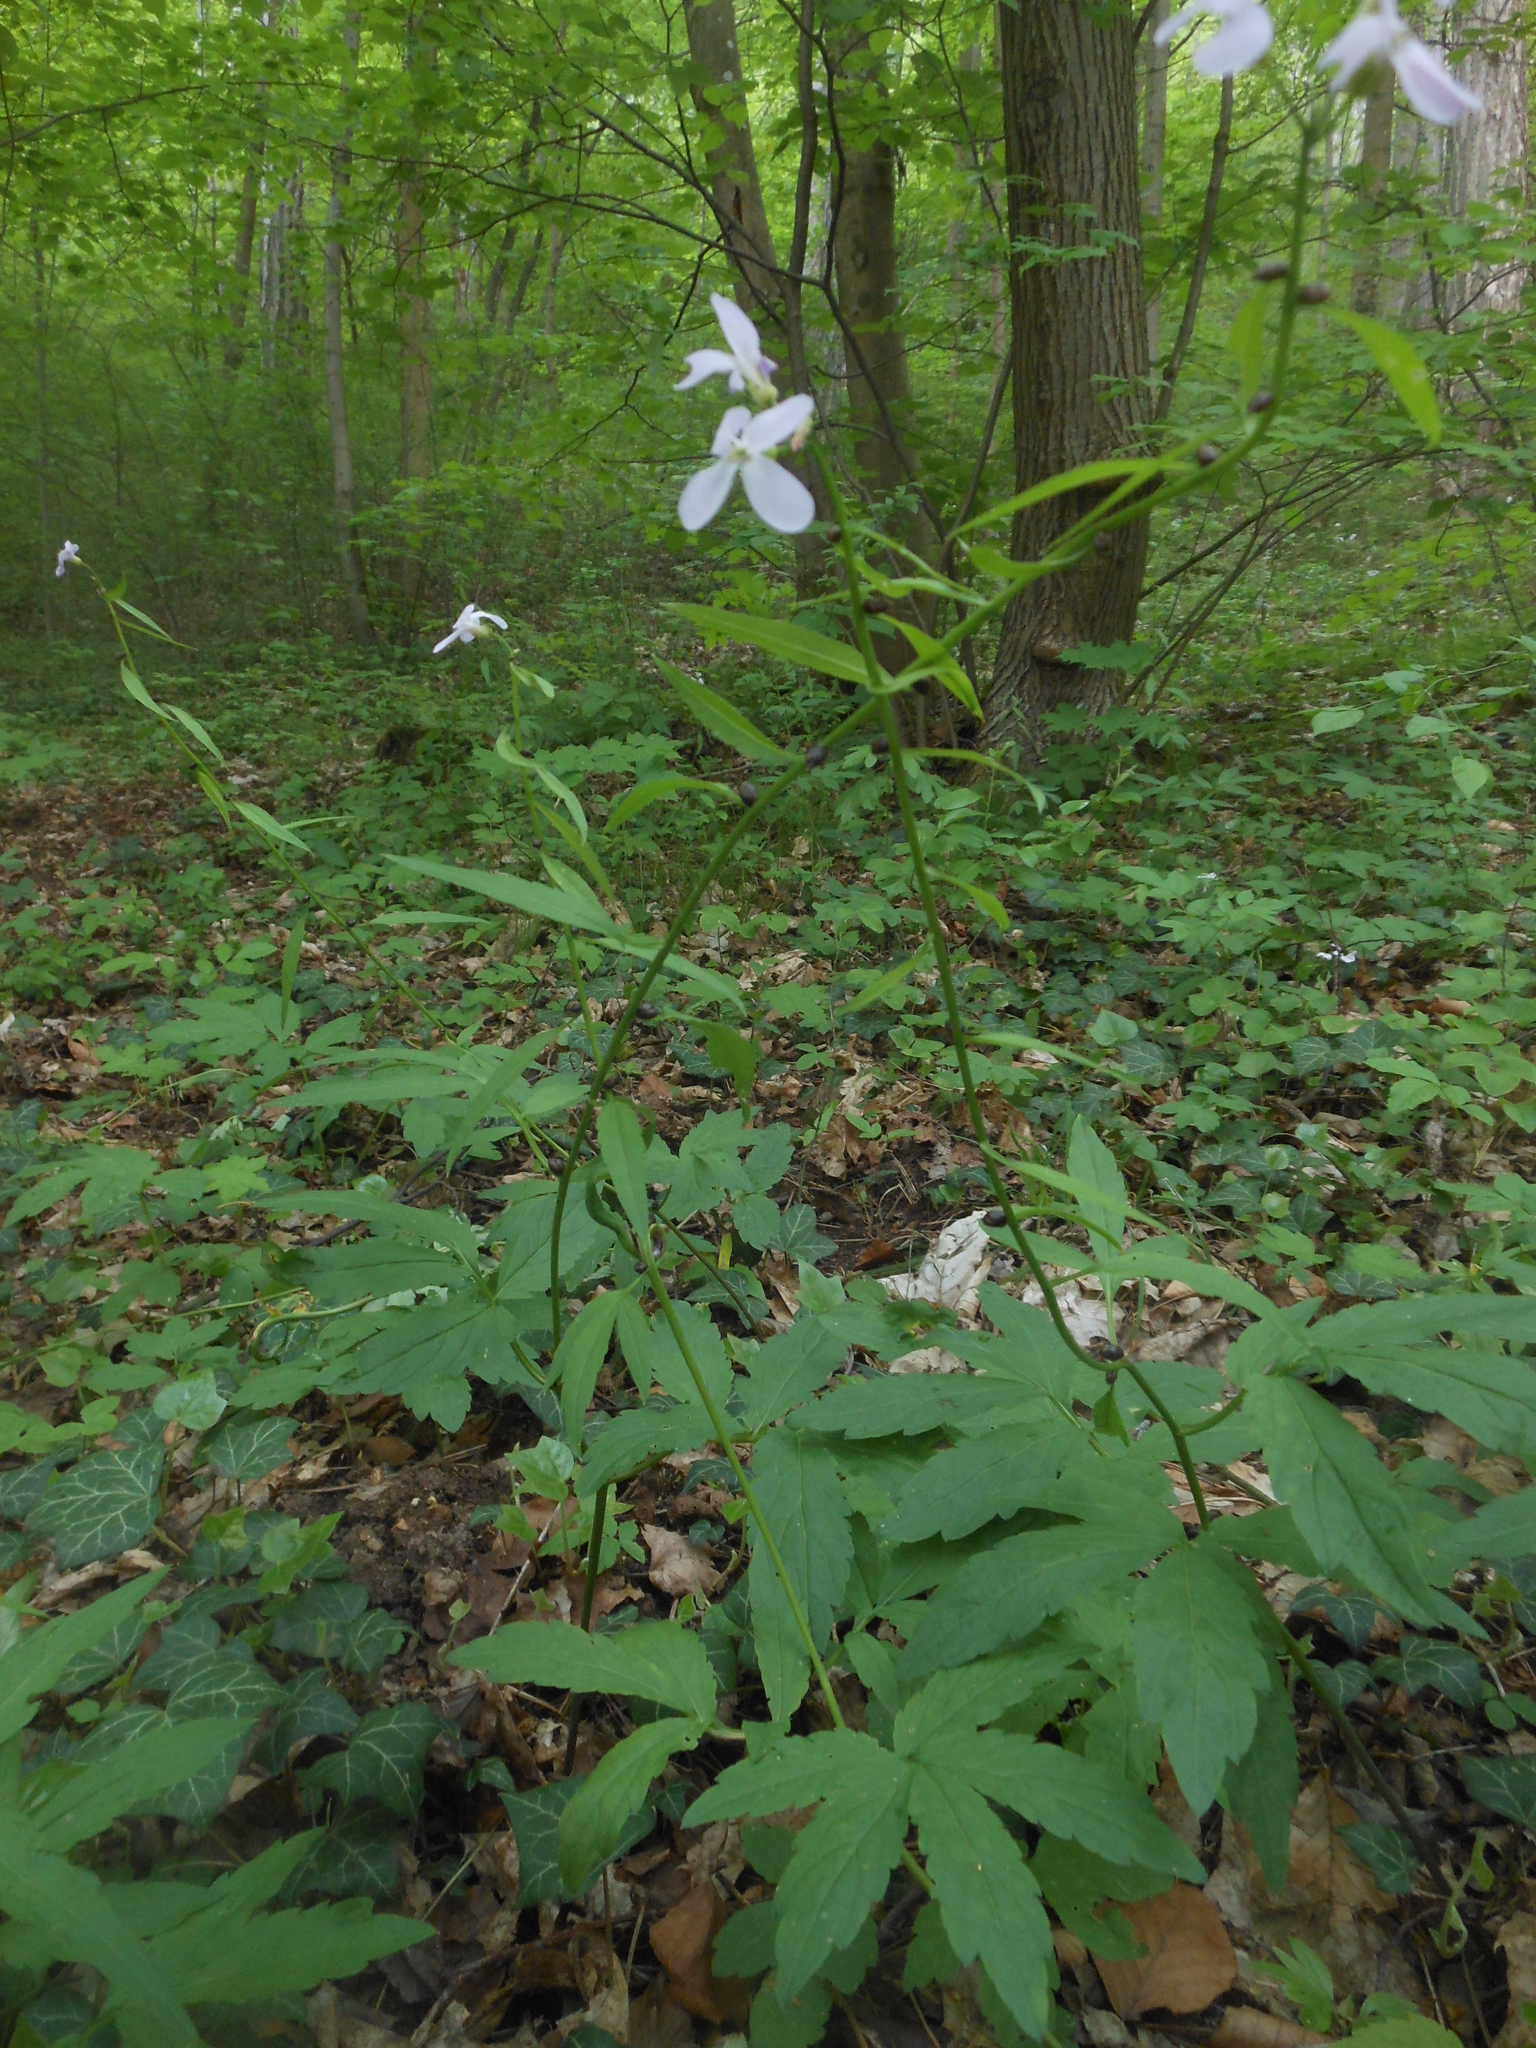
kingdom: Plantae
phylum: Tracheophyta
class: Magnoliopsida
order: Brassicales
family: Brassicaceae
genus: Cardamine
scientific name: Cardamine bulbifera
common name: Coralroot bittercress
